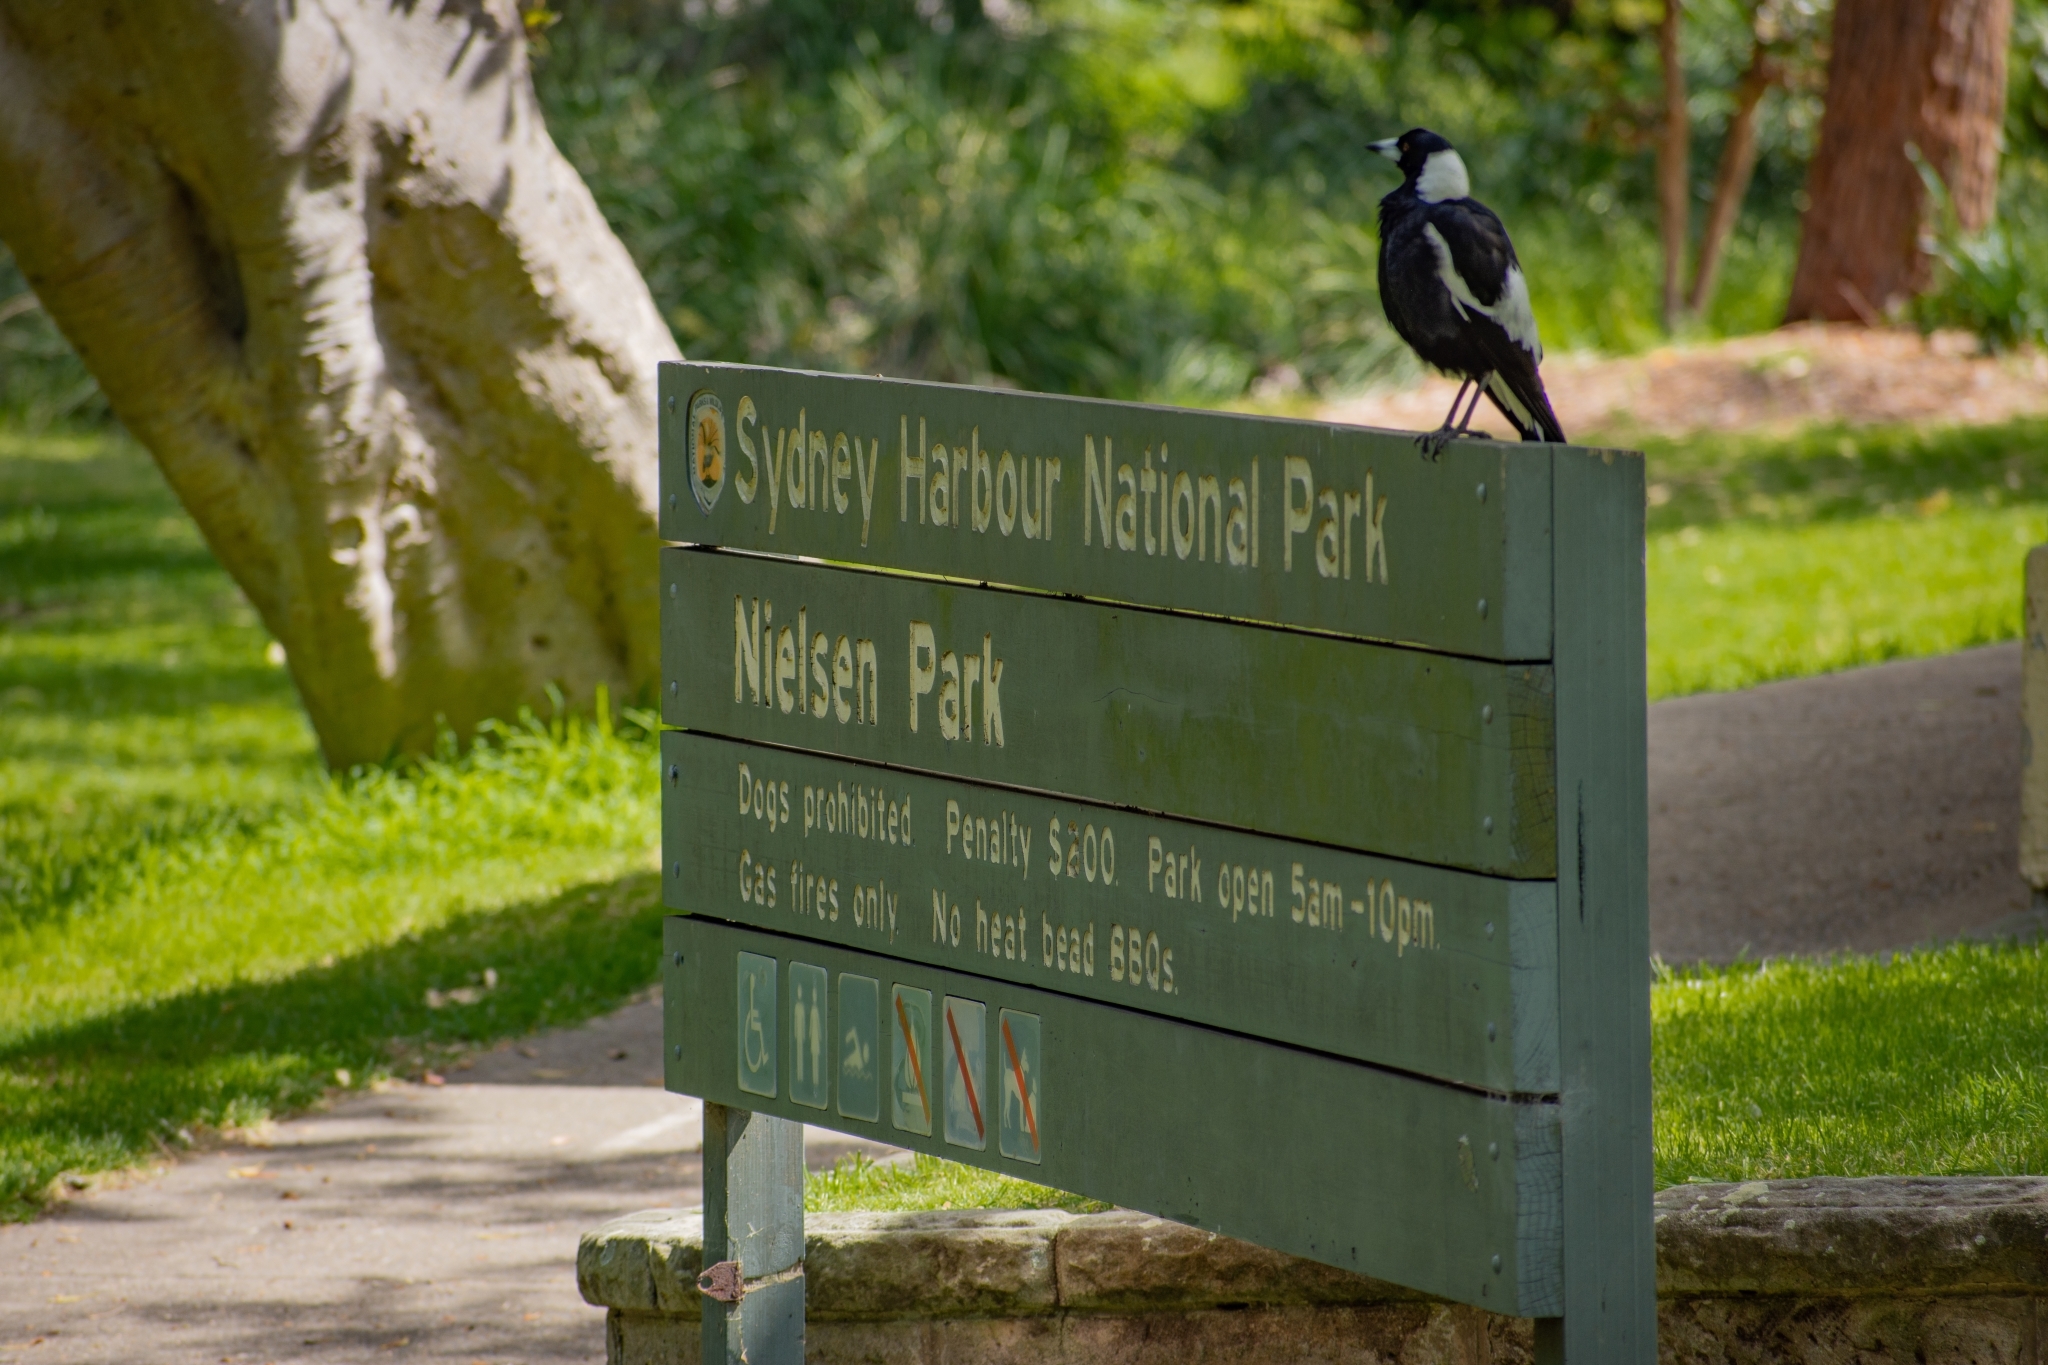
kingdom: Animalia
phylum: Chordata
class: Aves
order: Passeriformes
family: Cracticidae
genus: Gymnorhina
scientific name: Gymnorhina tibicen
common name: Australian magpie
